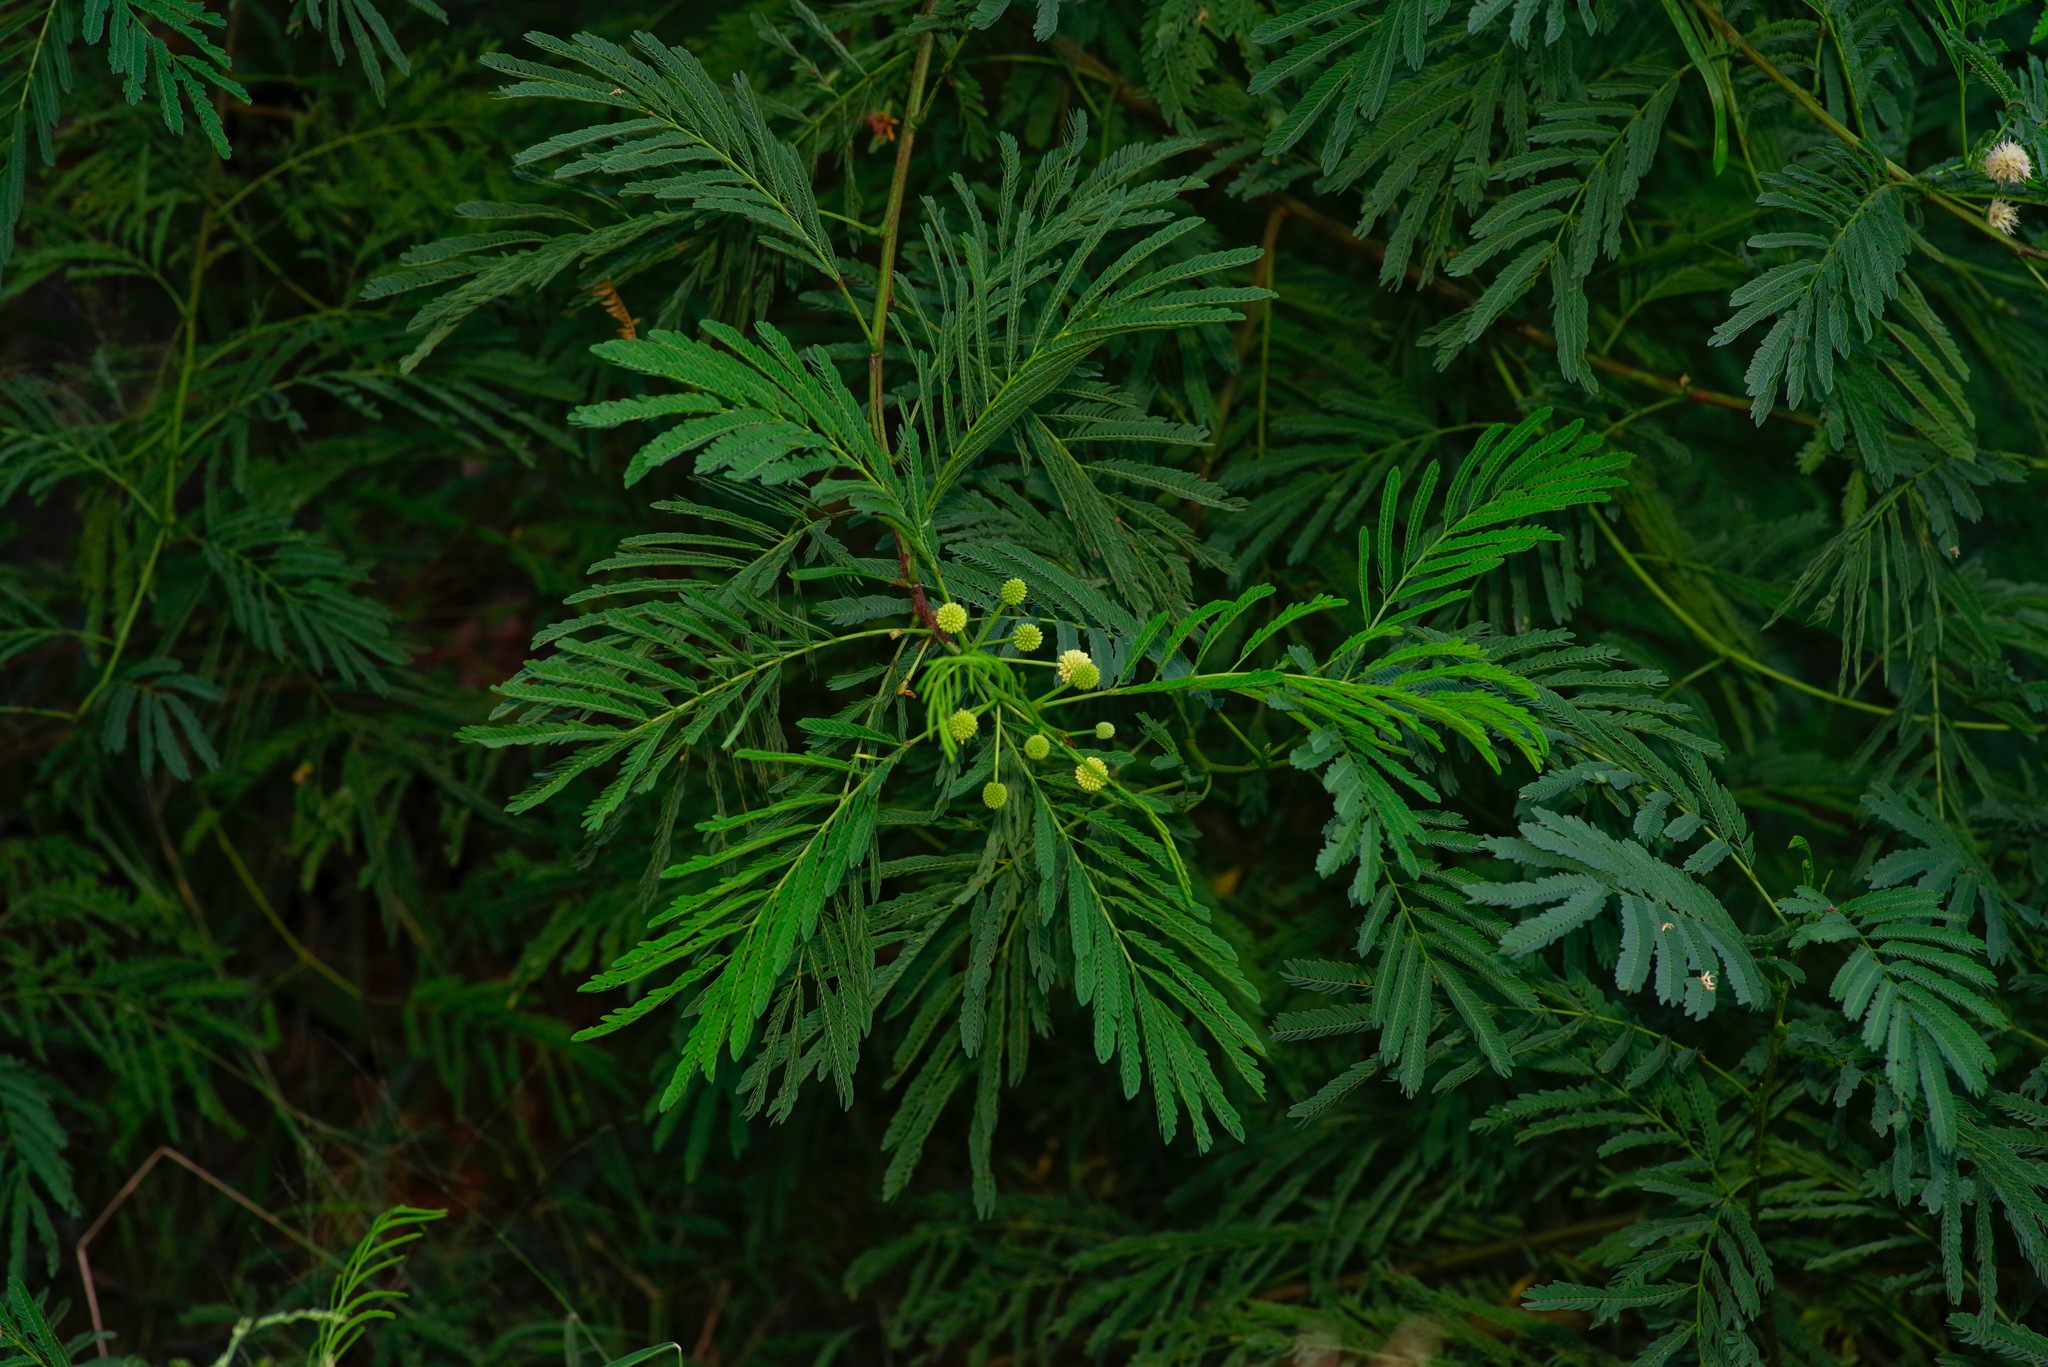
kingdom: Plantae
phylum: Tracheophyta
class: Magnoliopsida
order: Fabales
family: Fabaceae
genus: Leucaena
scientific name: Leucaena pulverulenta
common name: Great leadtree
